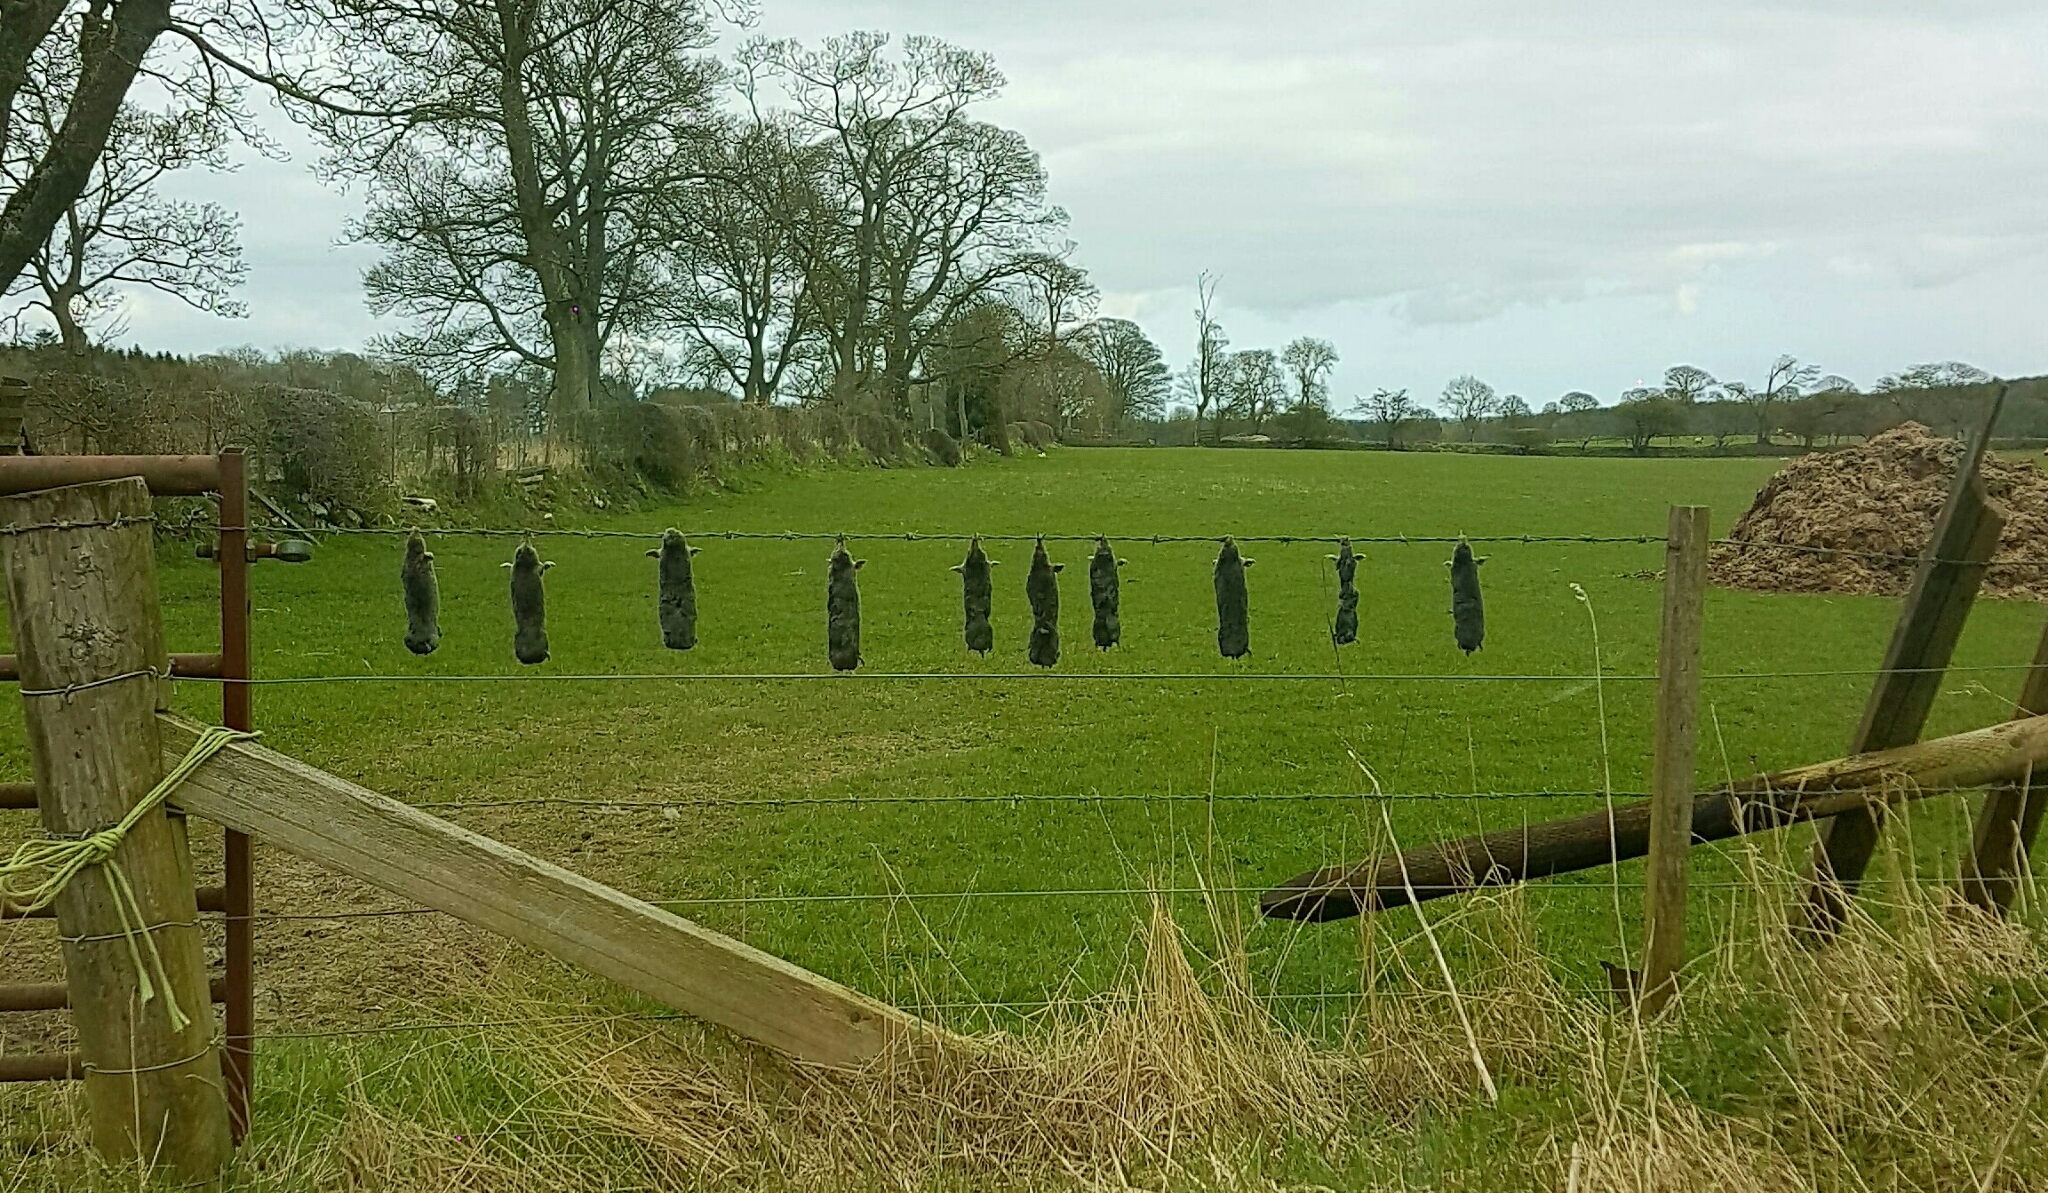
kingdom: Animalia
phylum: Chordata
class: Mammalia
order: Soricomorpha
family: Talpidae
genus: Talpa
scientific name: Talpa europaea
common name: European mole
